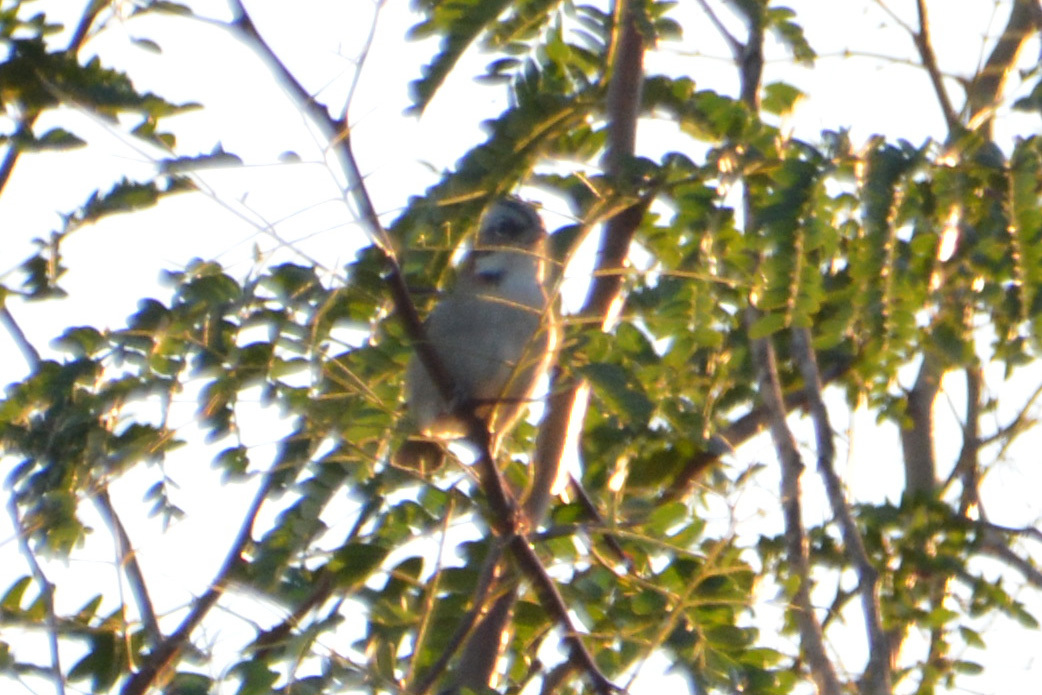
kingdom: Animalia
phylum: Chordata
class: Aves
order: Passeriformes
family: Passerellidae
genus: Zonotrichia
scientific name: Zonotrichia capensis
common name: Rufous-collared sparrow
